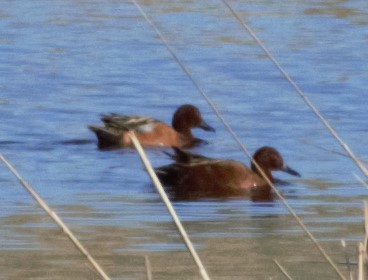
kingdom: Animalia
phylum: Chordata
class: Aves
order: Anseriformes
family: Anatidae
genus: Spatula
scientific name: Spatula cyanoptera
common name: Cinnamon teal
